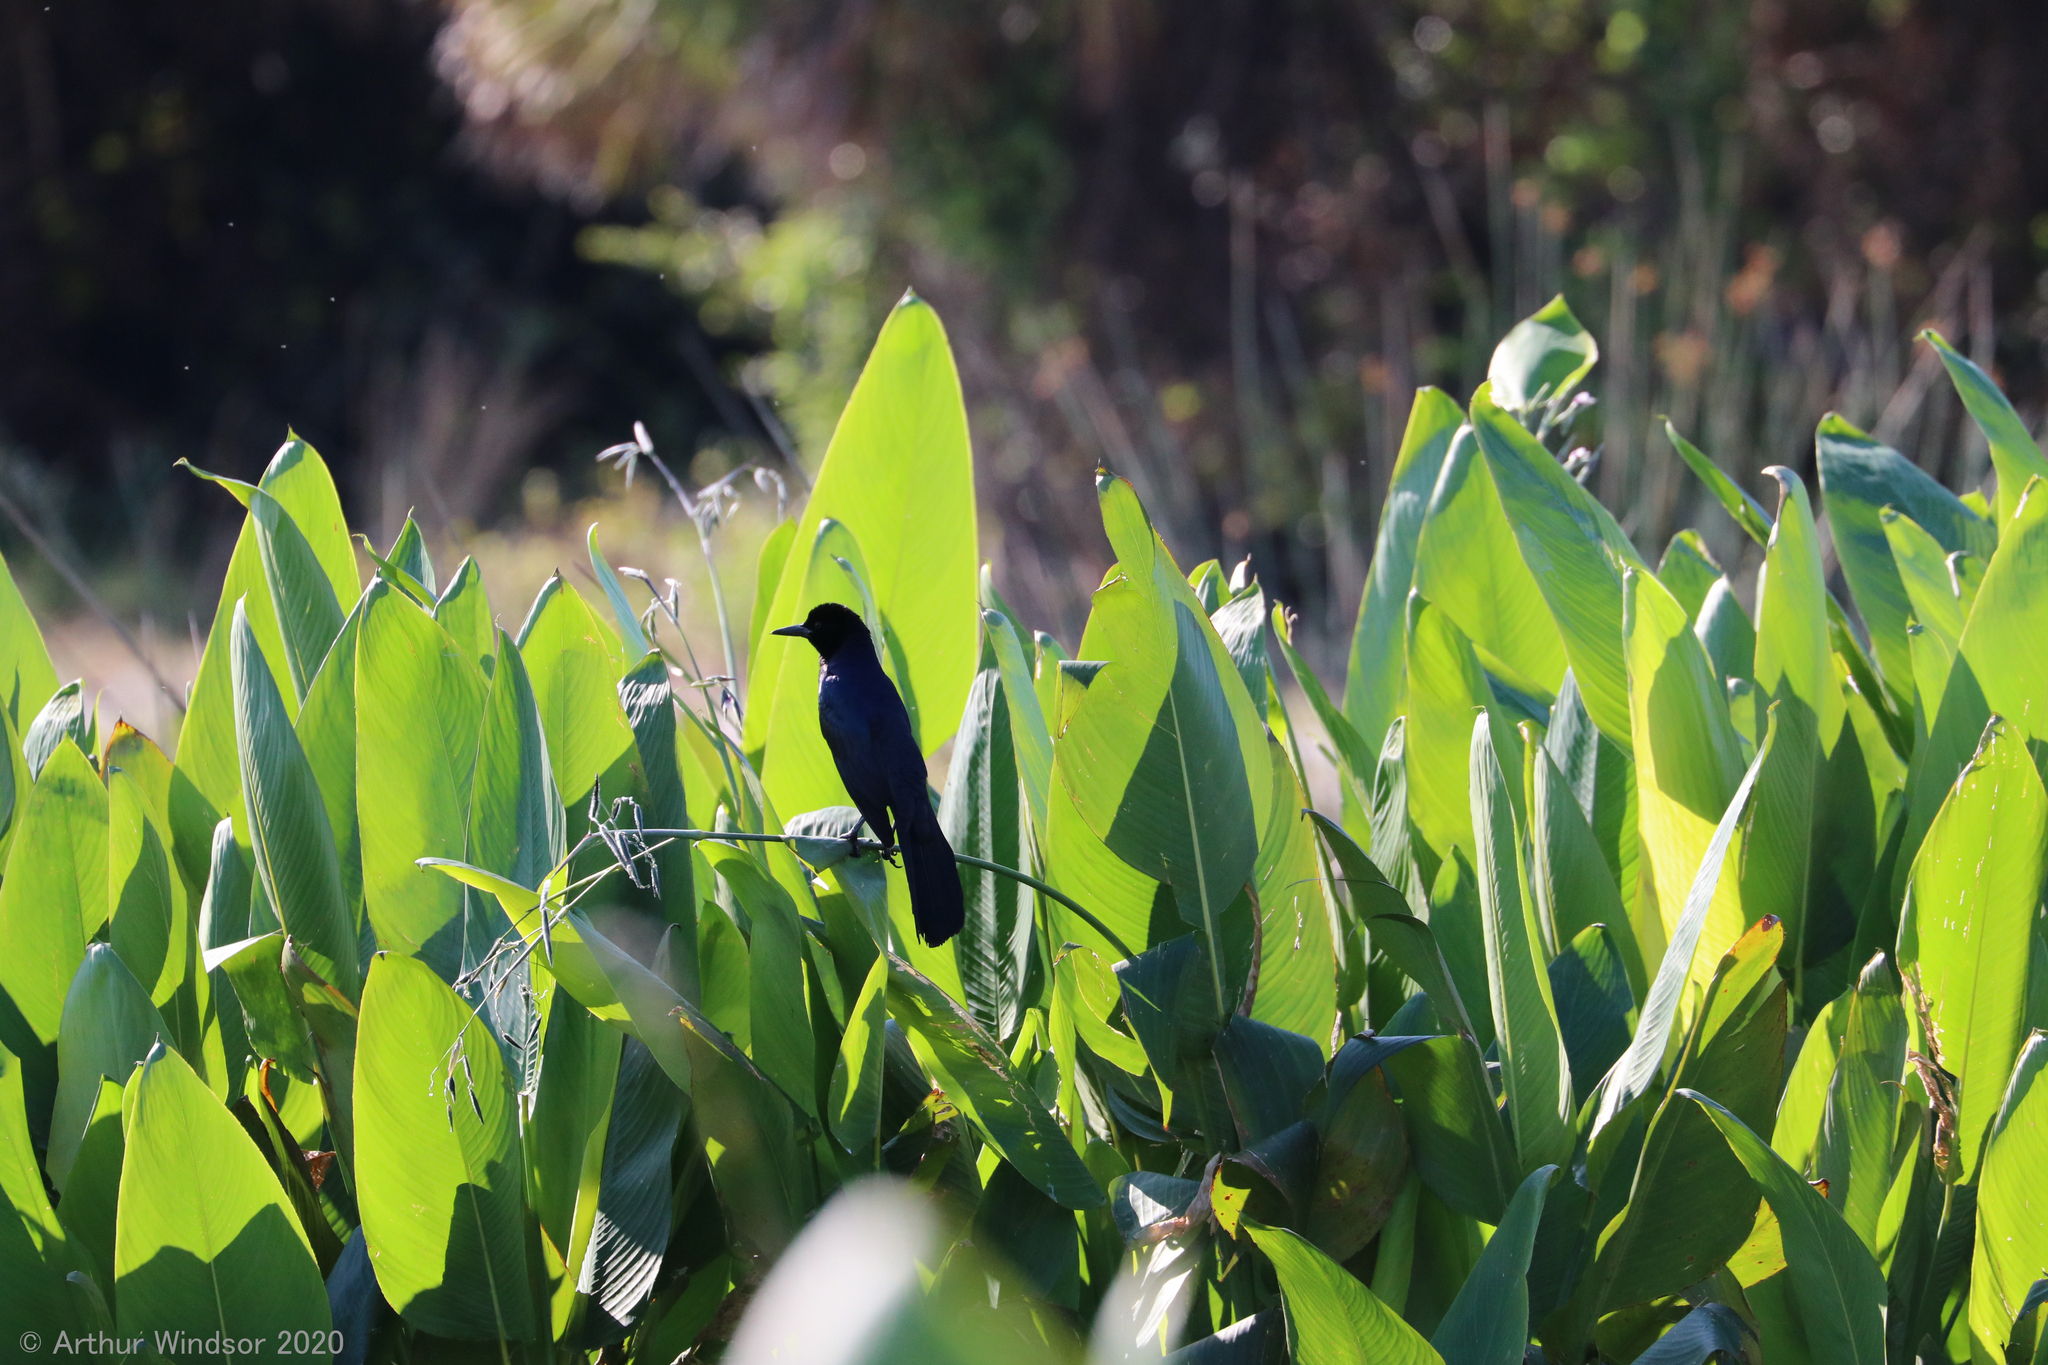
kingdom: Animalia
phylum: Chordata
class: Aves
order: Passeriformes
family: Icteridae
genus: Quiscalus
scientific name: Quiscalus major
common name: Boat-tailed grackle
